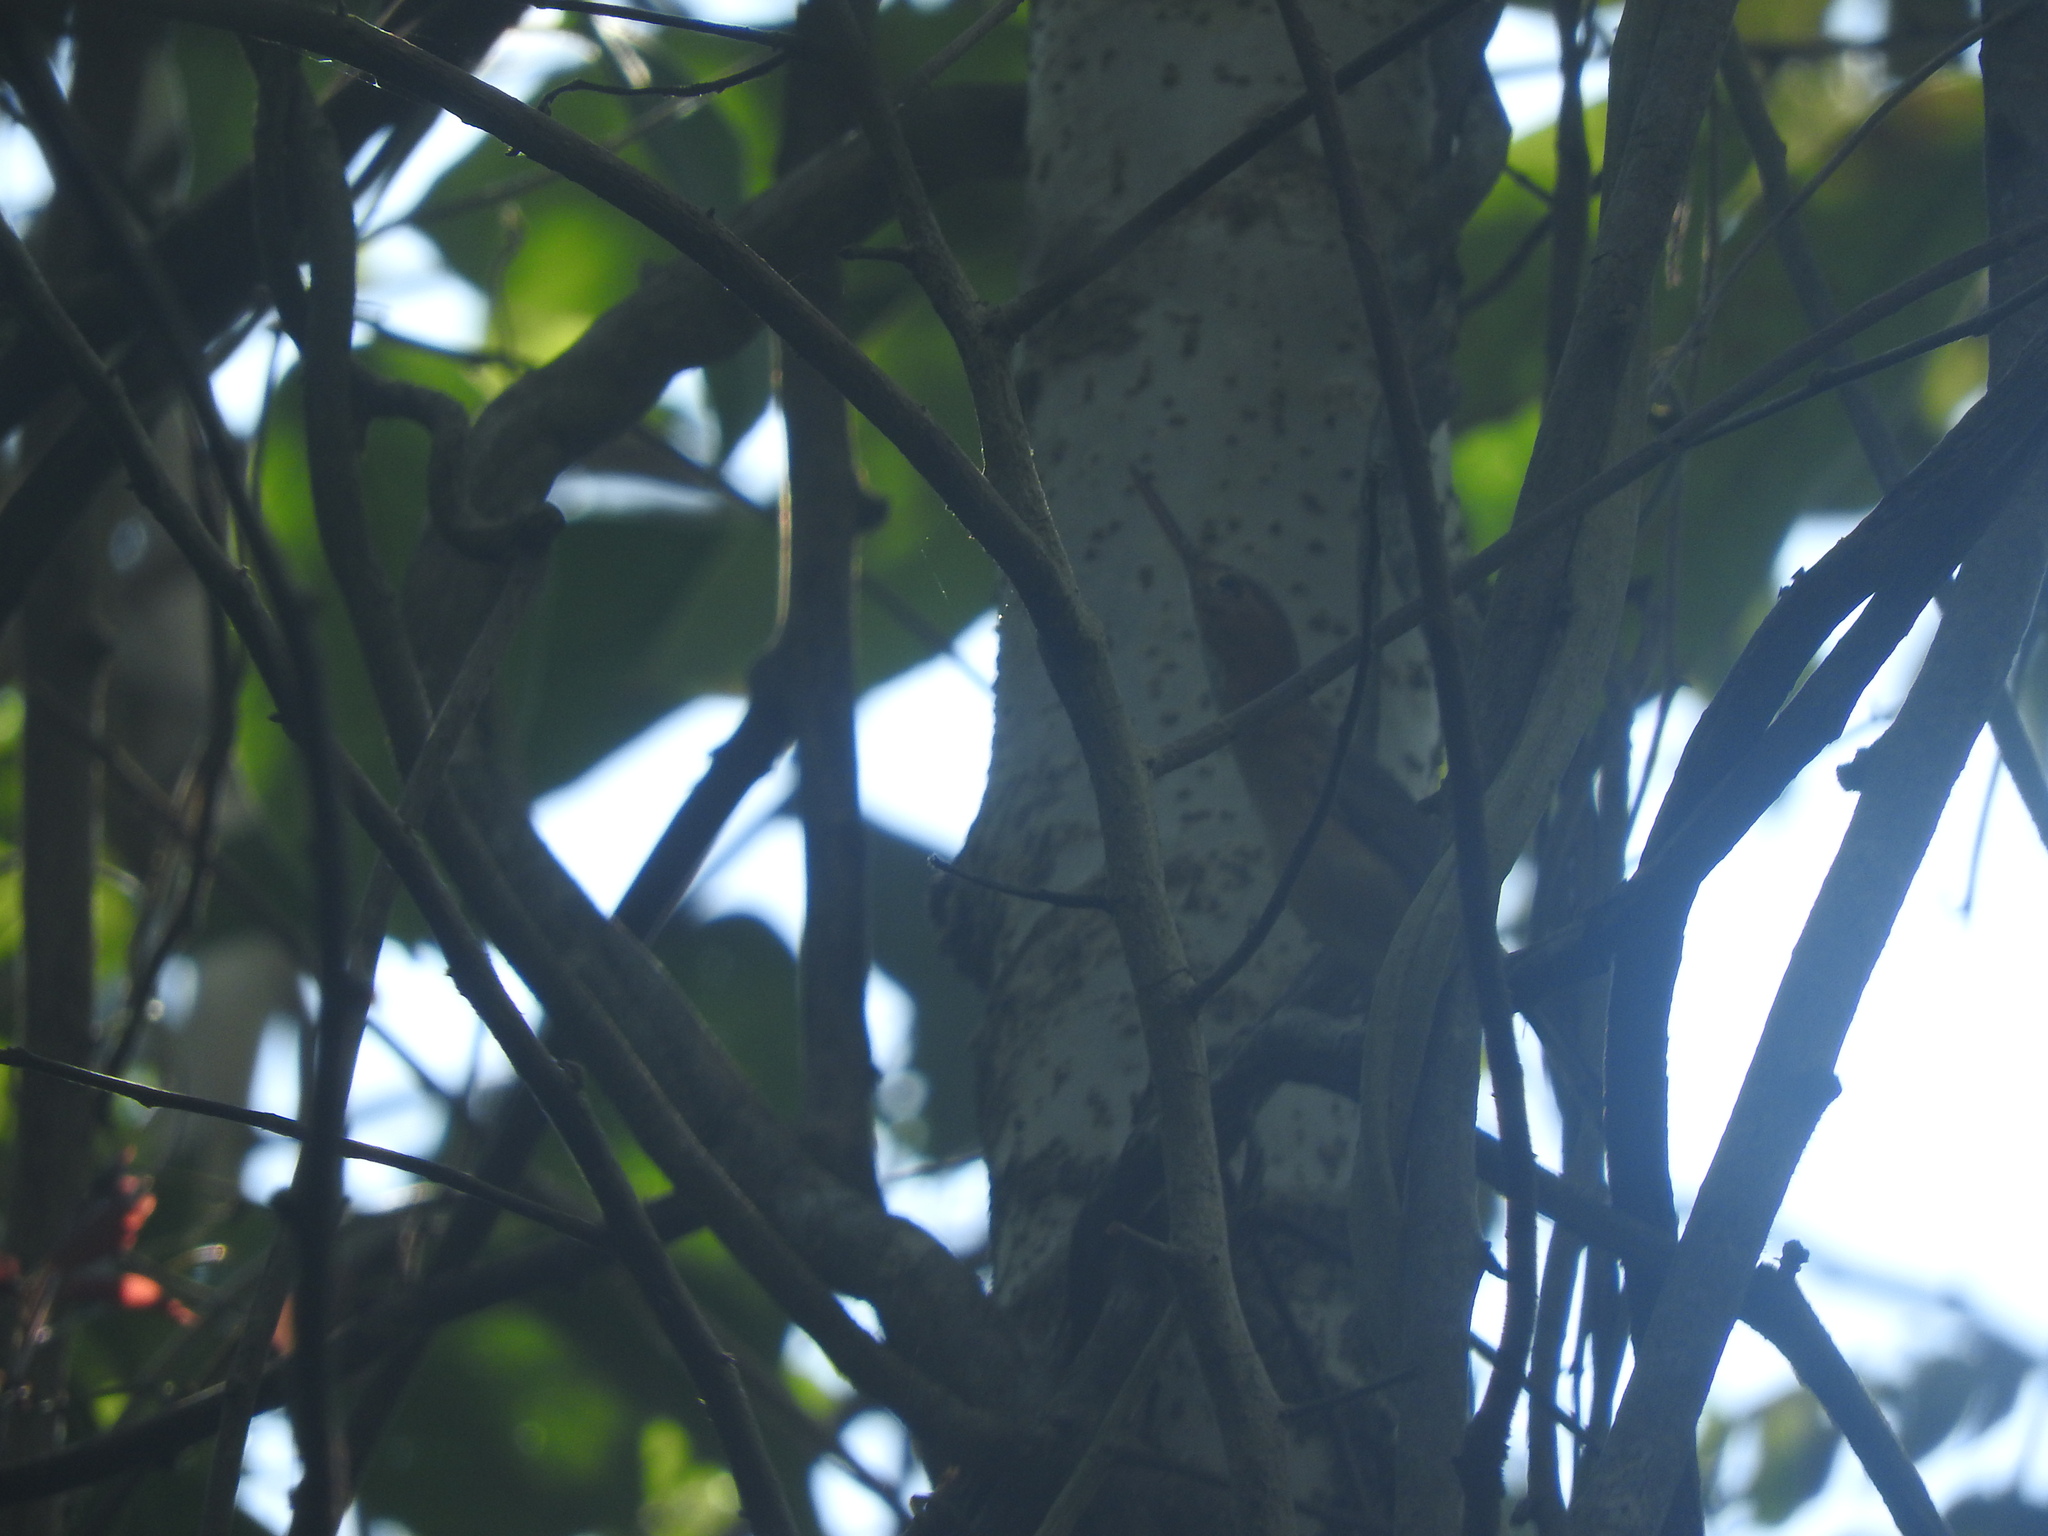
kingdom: Animalia
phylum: Chordata
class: Aves
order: Passeriformes
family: Polioptilidae
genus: Ramphocaenus
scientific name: Ramphocaenus melanurus
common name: Long-billed gnatwren
